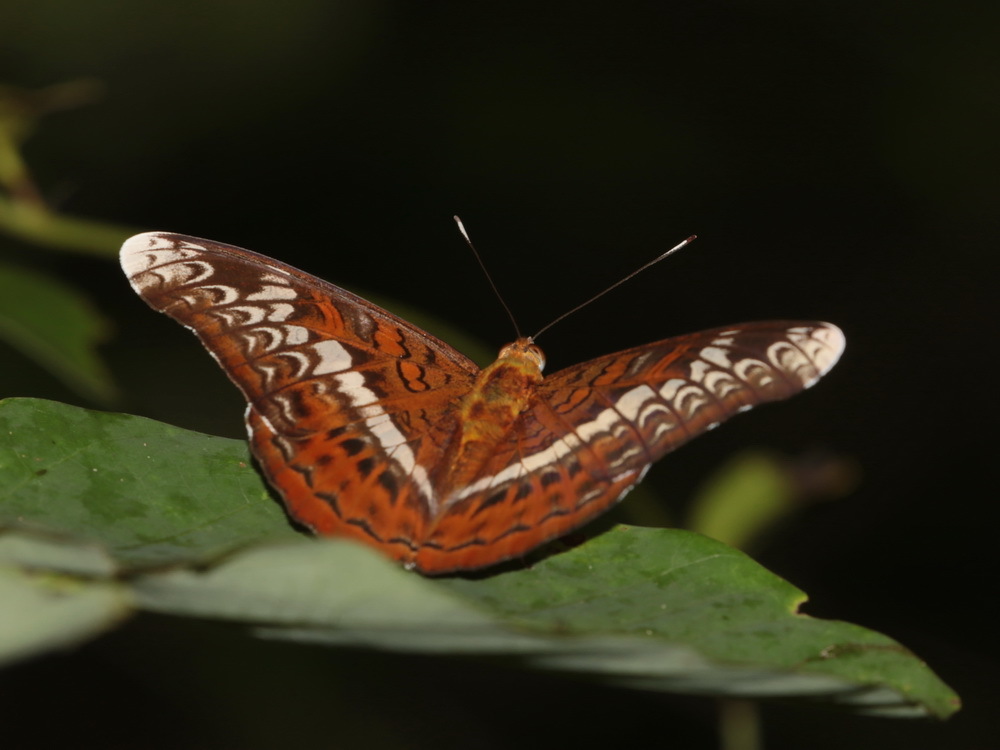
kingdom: Animalia
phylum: Arthropoda
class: Insecta
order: Lepidoptera
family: Nymphalidae
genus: Lebadea
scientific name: Lebadea martha
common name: Knight
